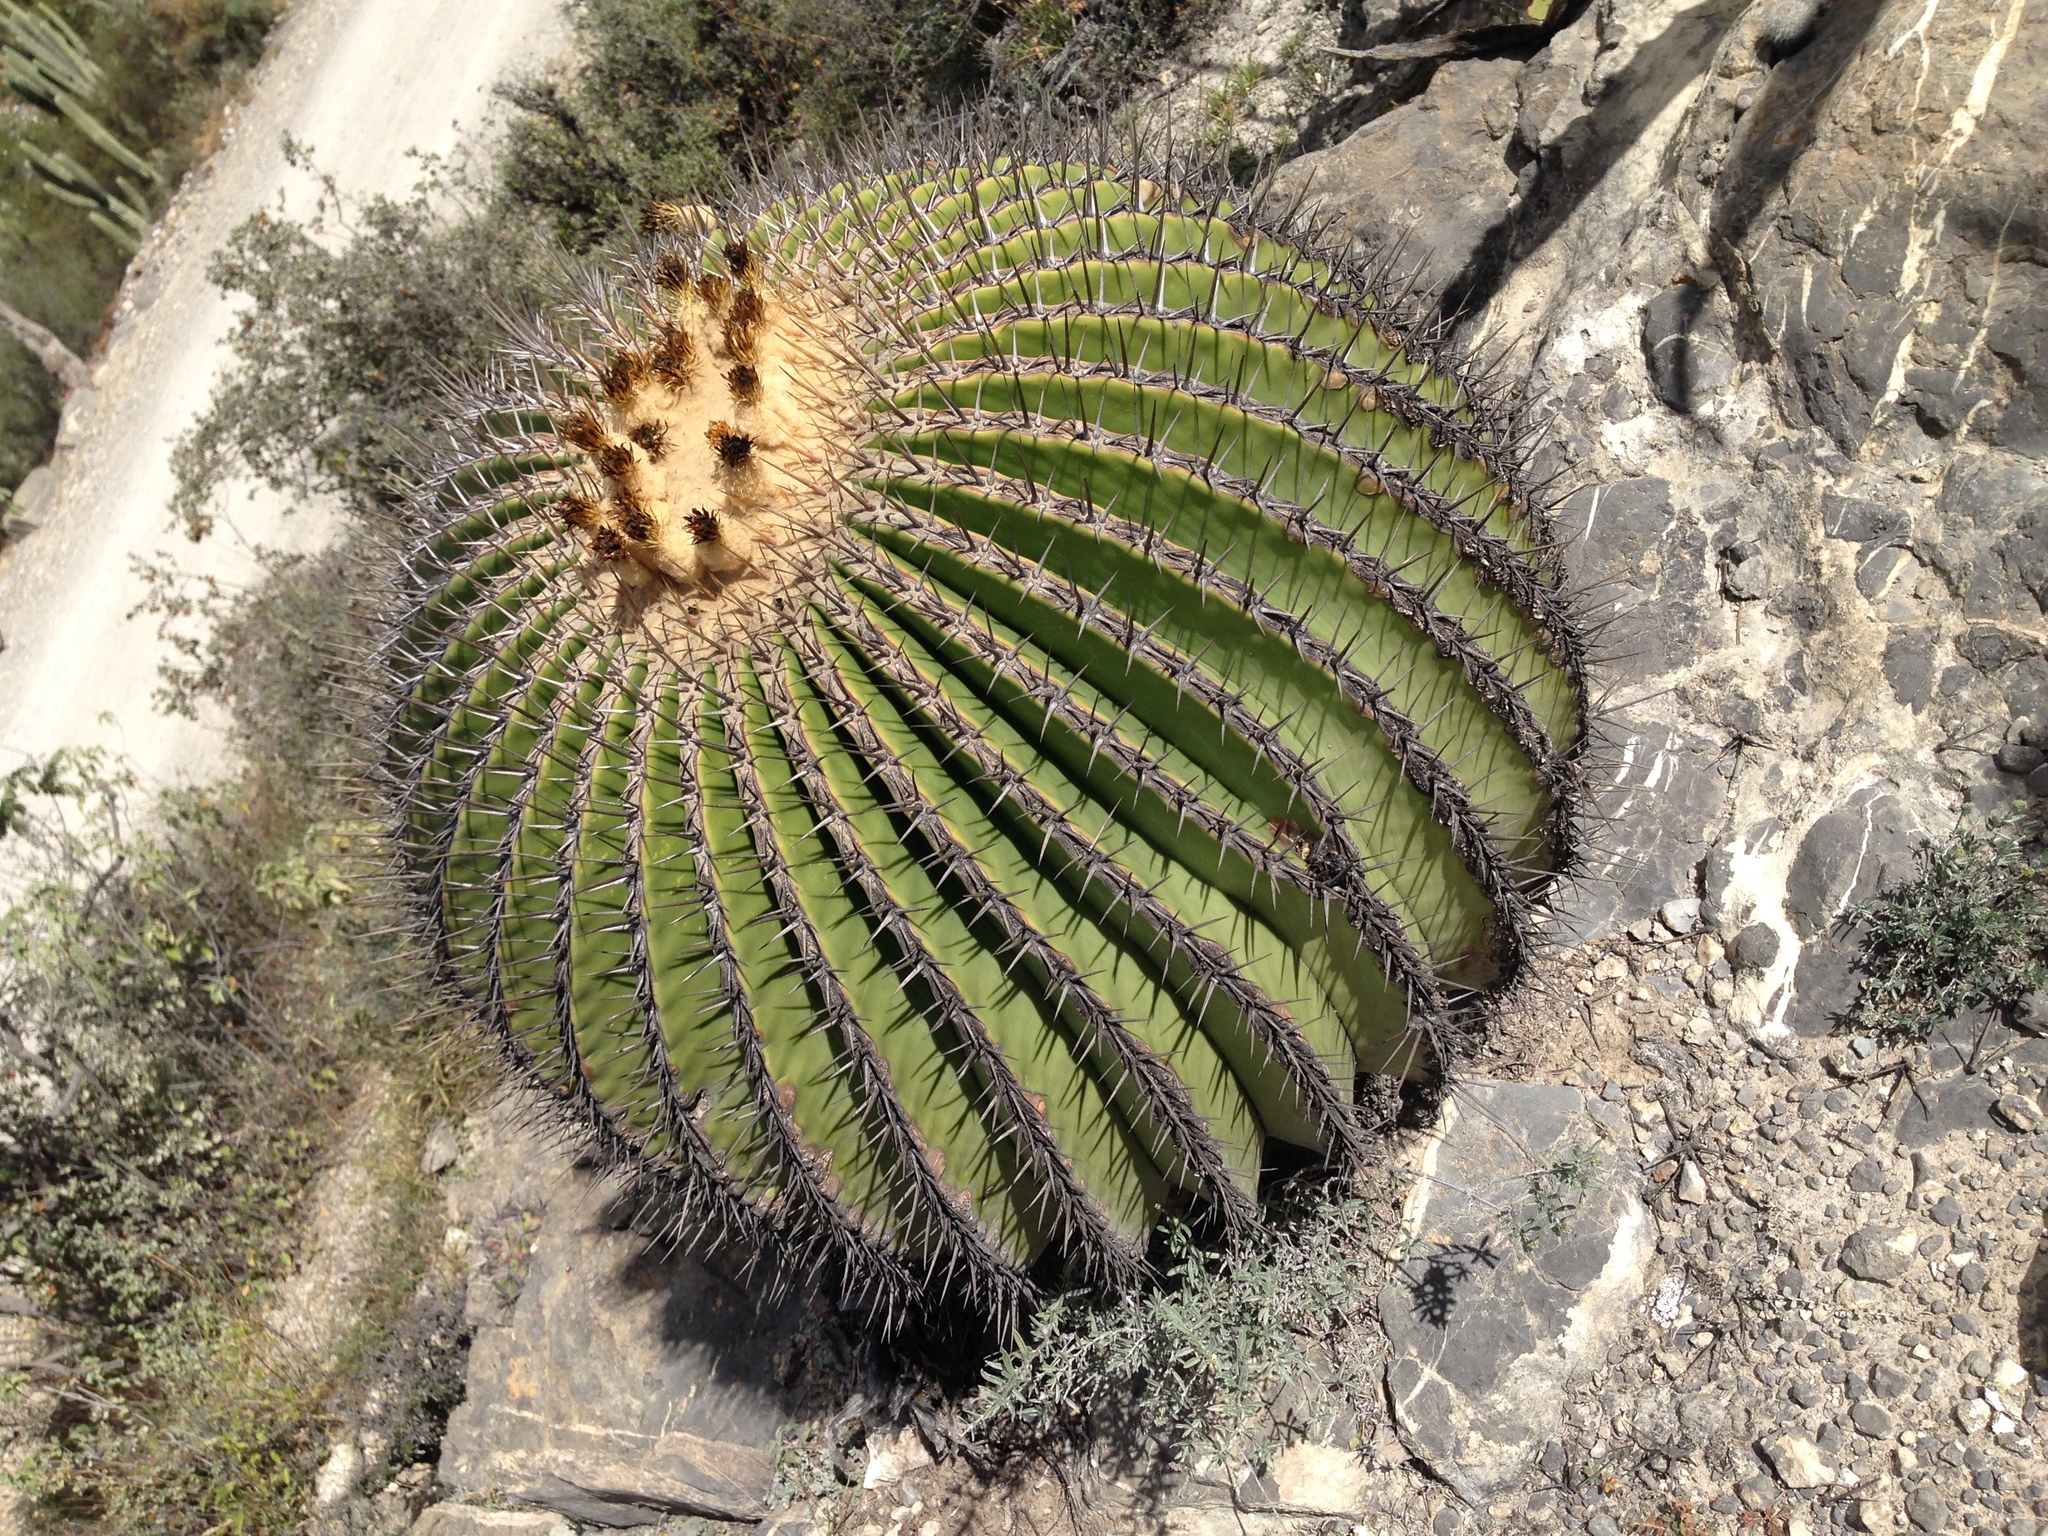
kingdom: Plantae
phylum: Tracheophyta
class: Magnoliopsida
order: Caryophyllales
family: Cactaceae
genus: Echinocactus
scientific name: Echinocactus platyacanthus
